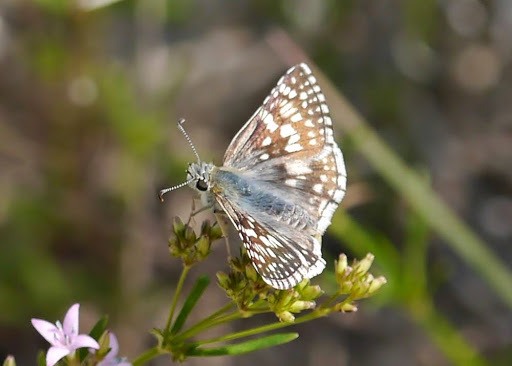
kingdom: Animalia
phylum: Arthropoda
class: Insecta
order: Lepidoptera
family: Hesperiidae
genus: Burnsius
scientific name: Burnsius
